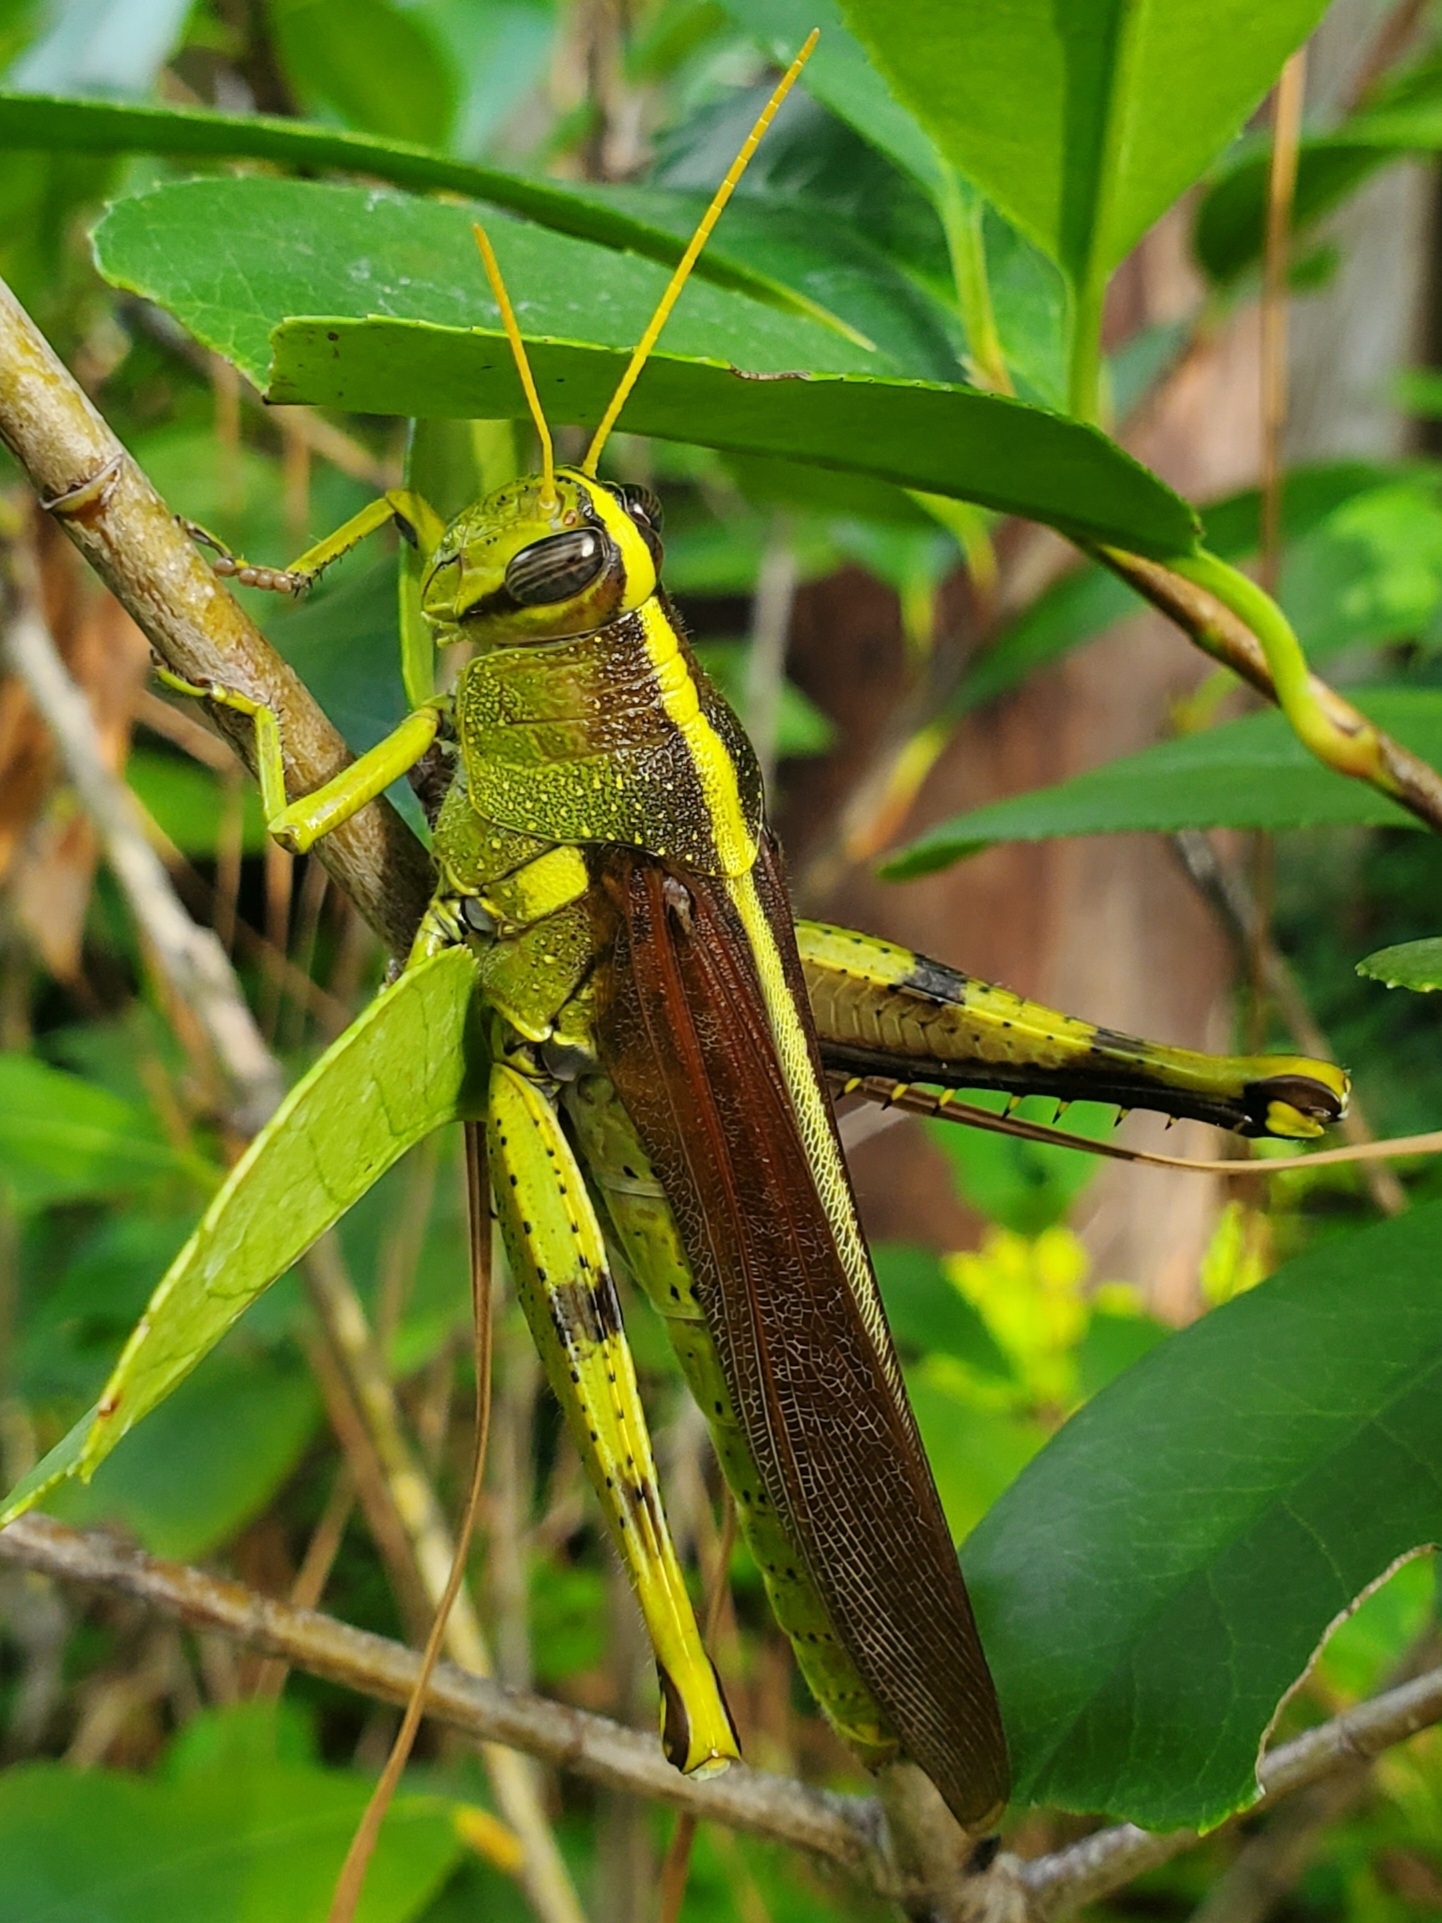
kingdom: Animalia
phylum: Arthropoda
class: Insecta
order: Orthoptera
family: Acrididae
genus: Schistocerca
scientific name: Schistocerca obscura
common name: Obscure bird grasshopper
